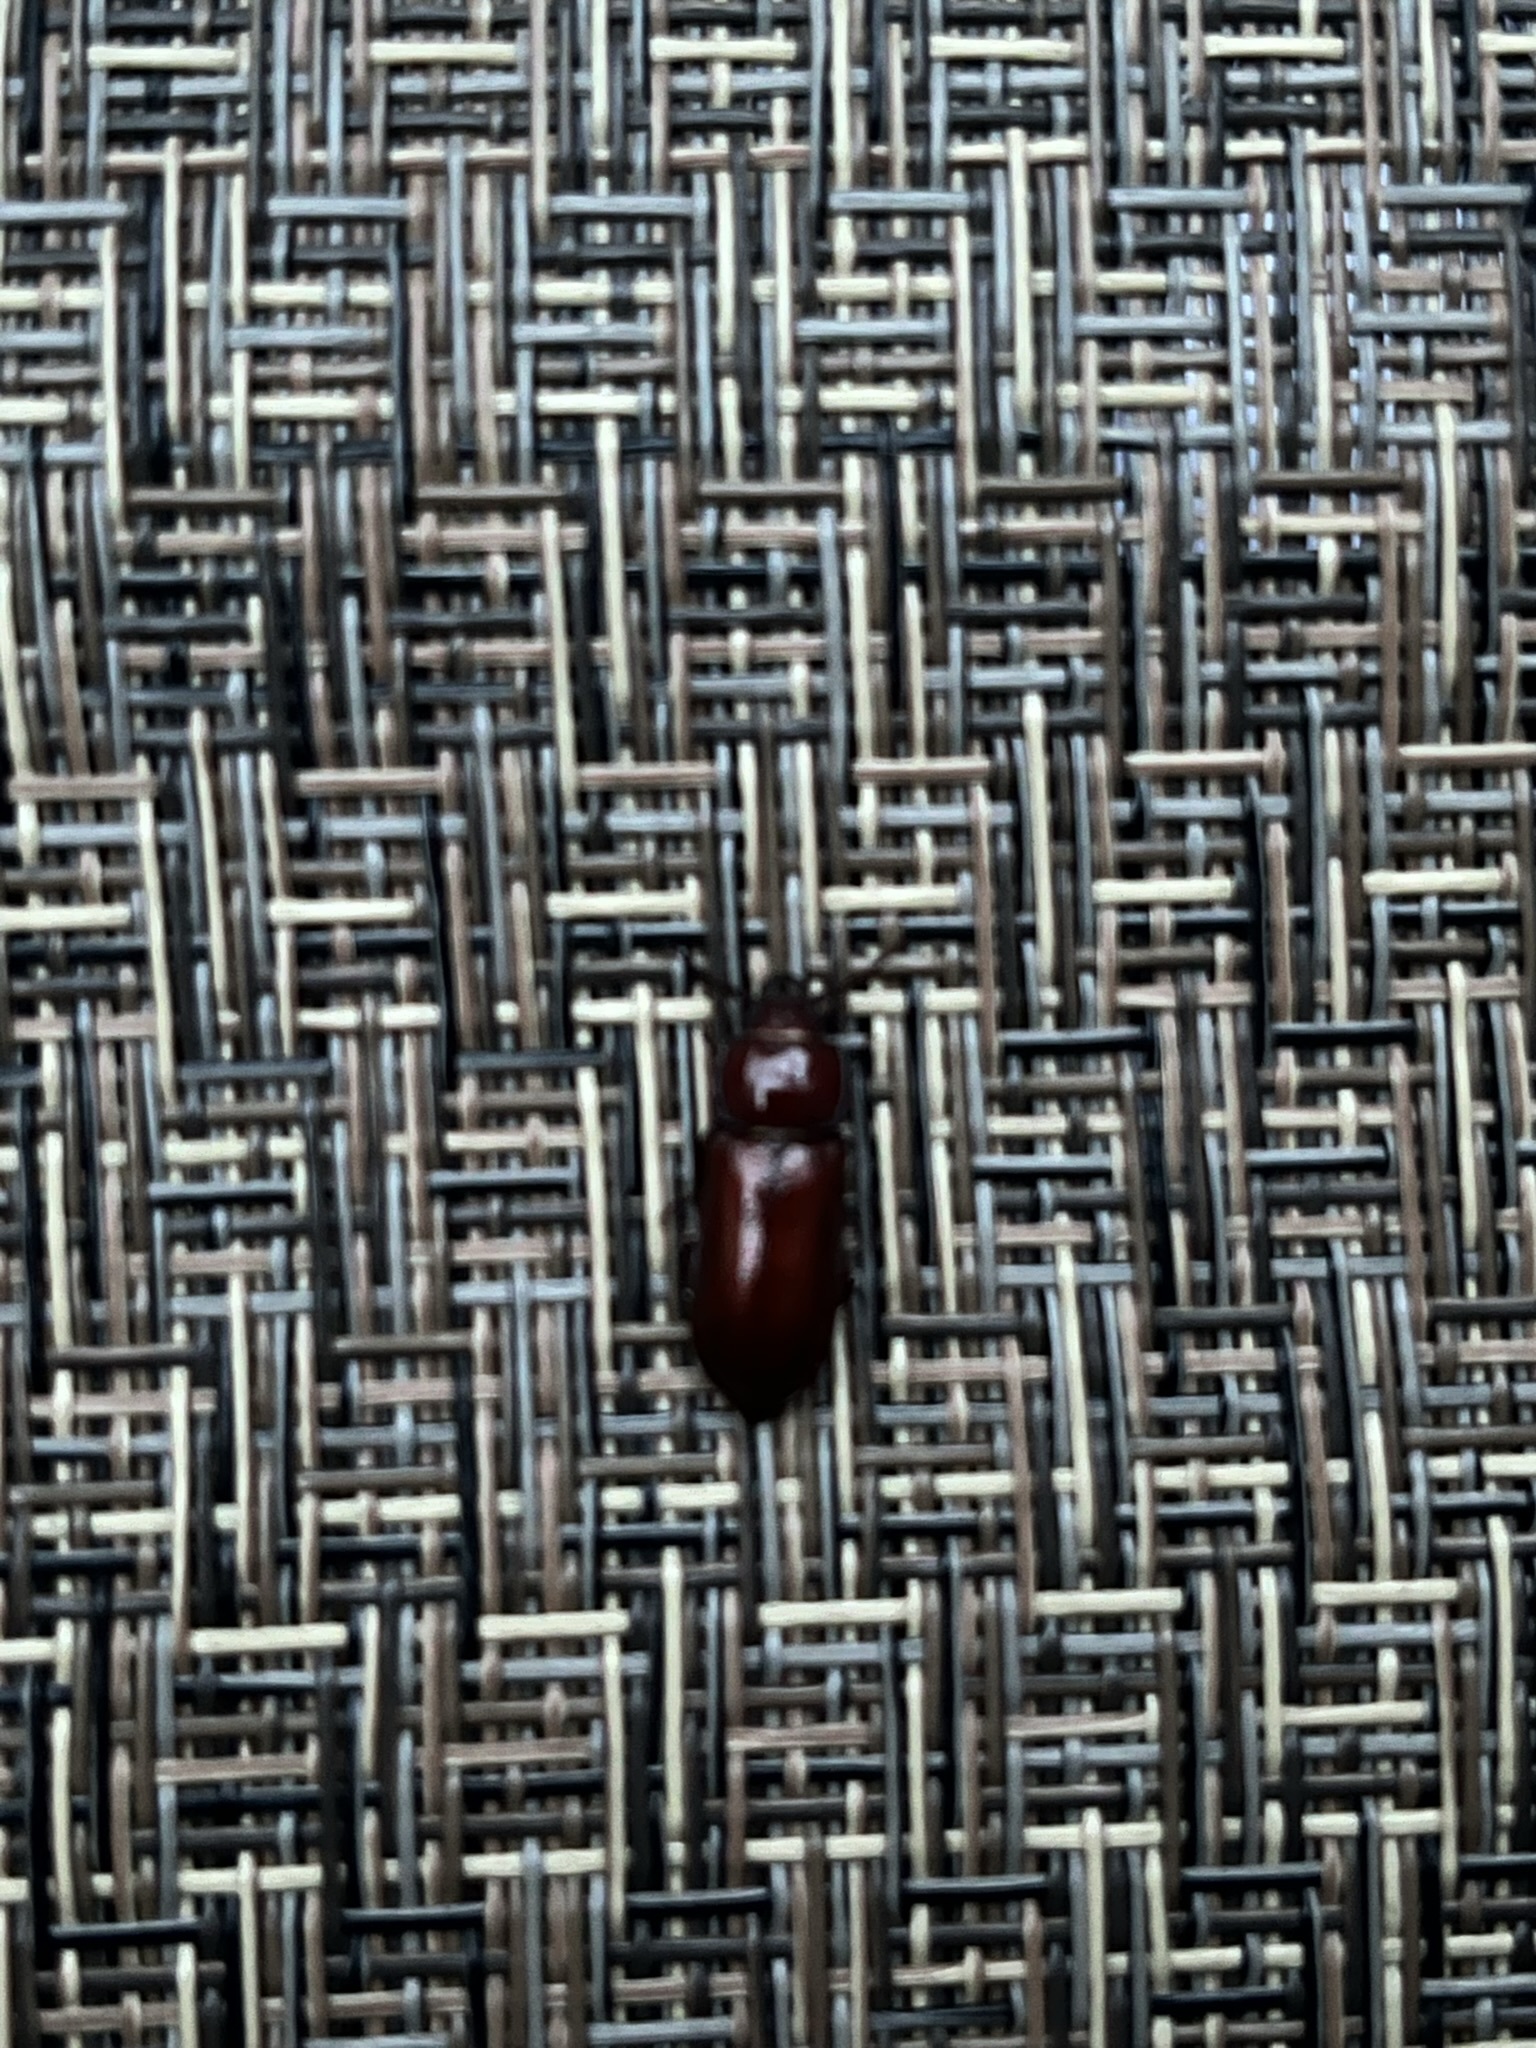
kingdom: Animalia
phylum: Arthropoda
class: Insecta
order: Coleoptera
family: Cerambycidae
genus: Neandra
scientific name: Neandra brunnea
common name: Pole borer
